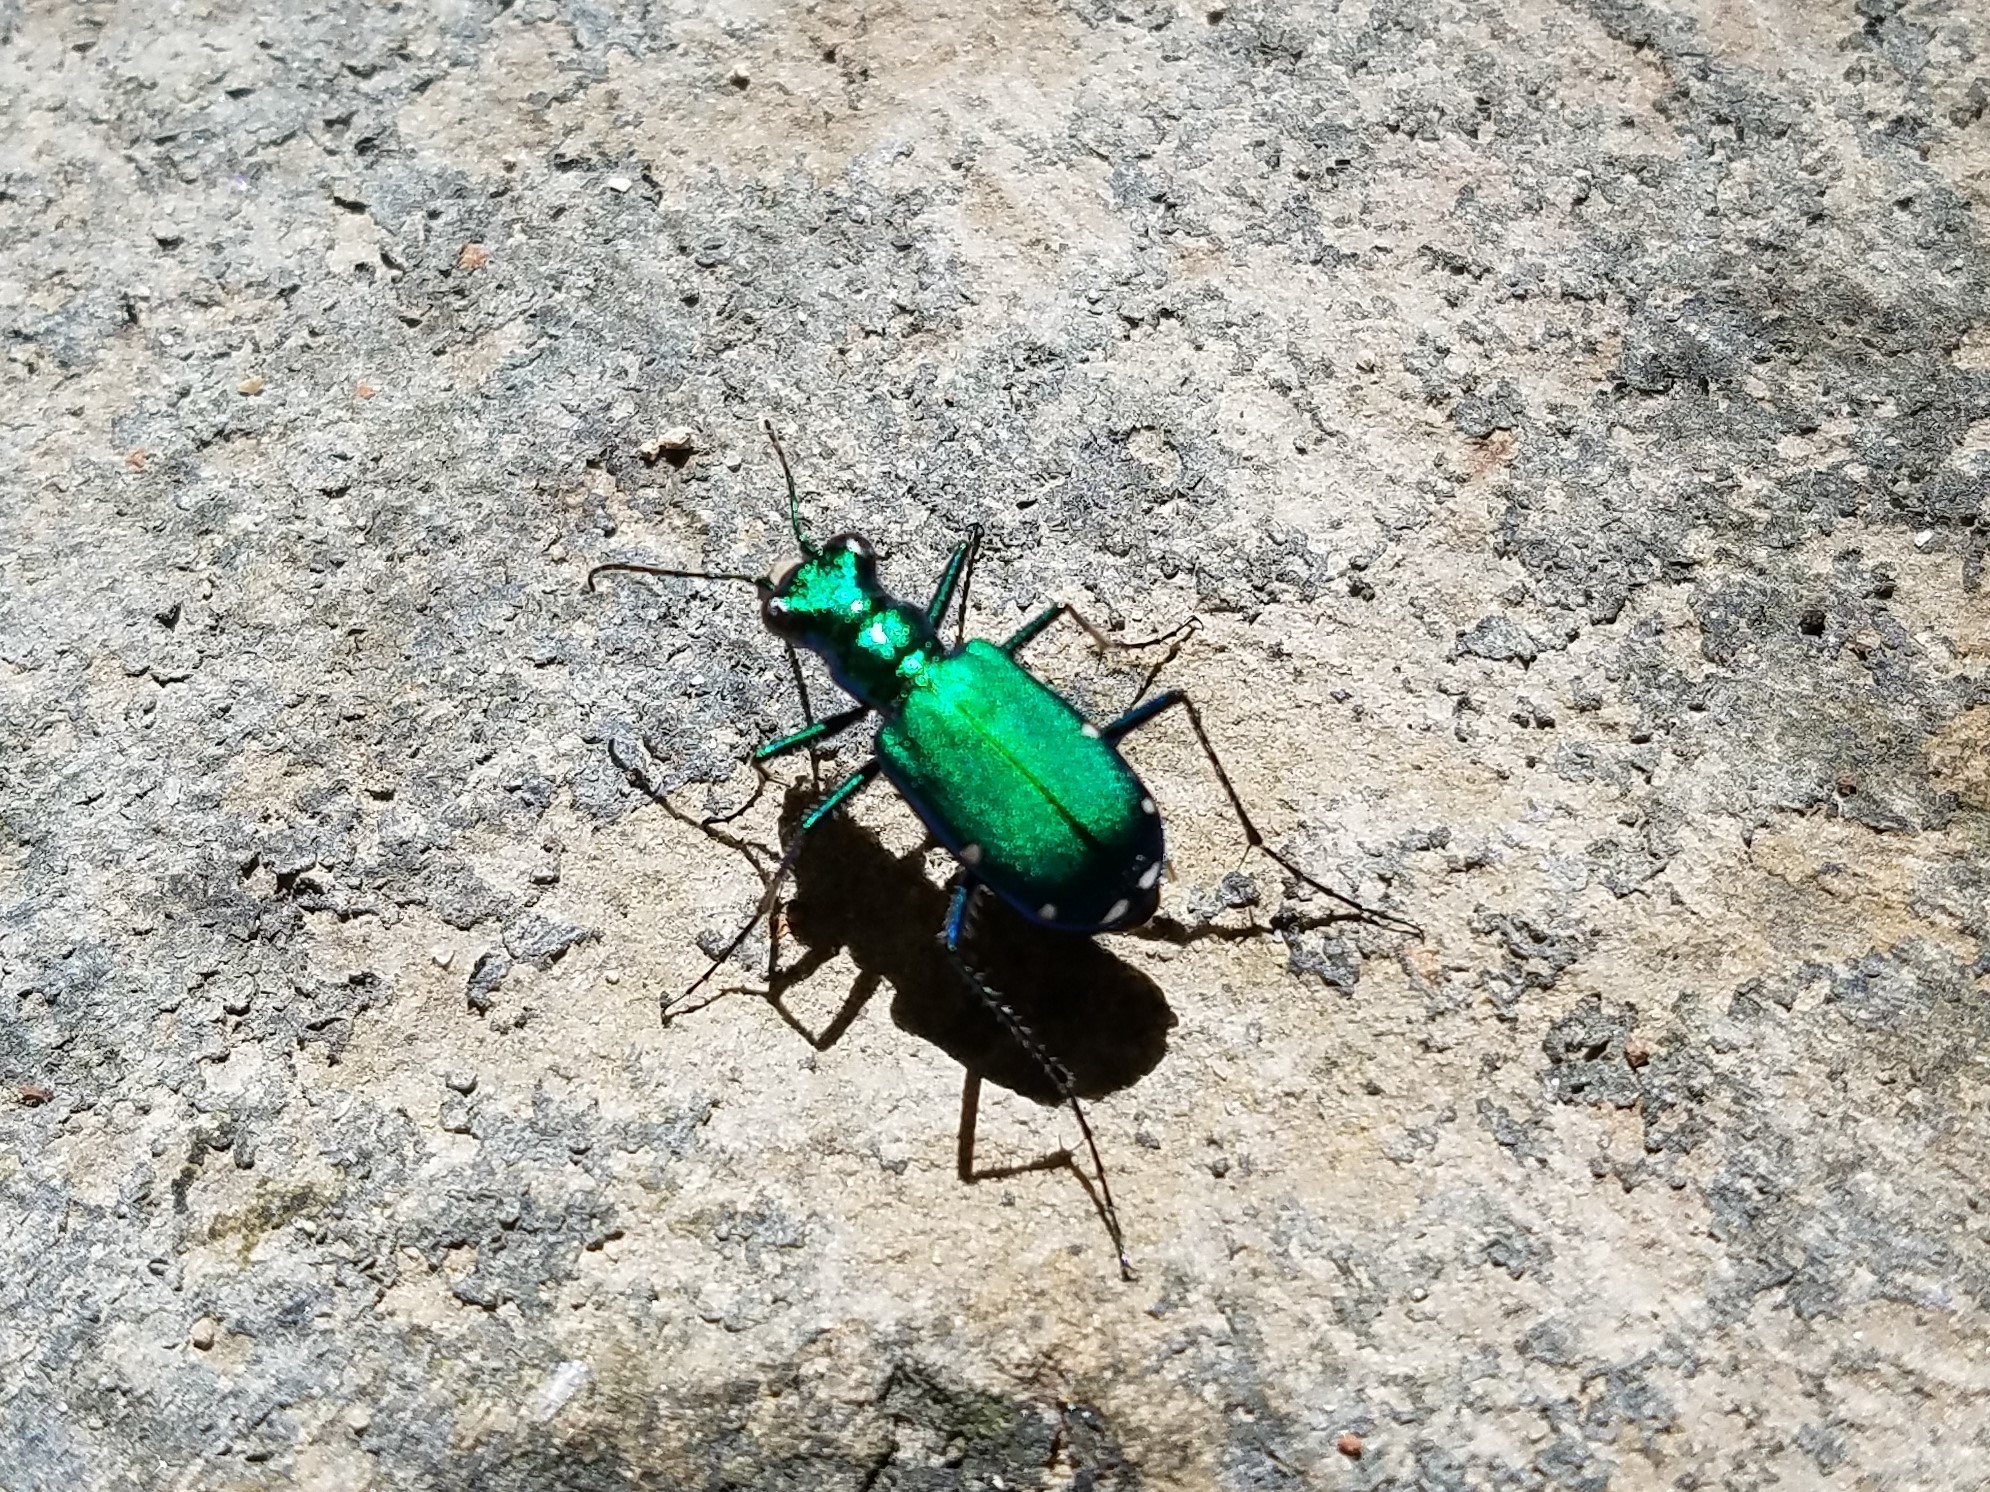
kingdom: Animalia
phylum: Arthropoda
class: Insecta
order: Coleoptera
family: Carabidae
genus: Cicindela
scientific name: Cicindela sexguttata
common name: Six-spotted tiger beetle
